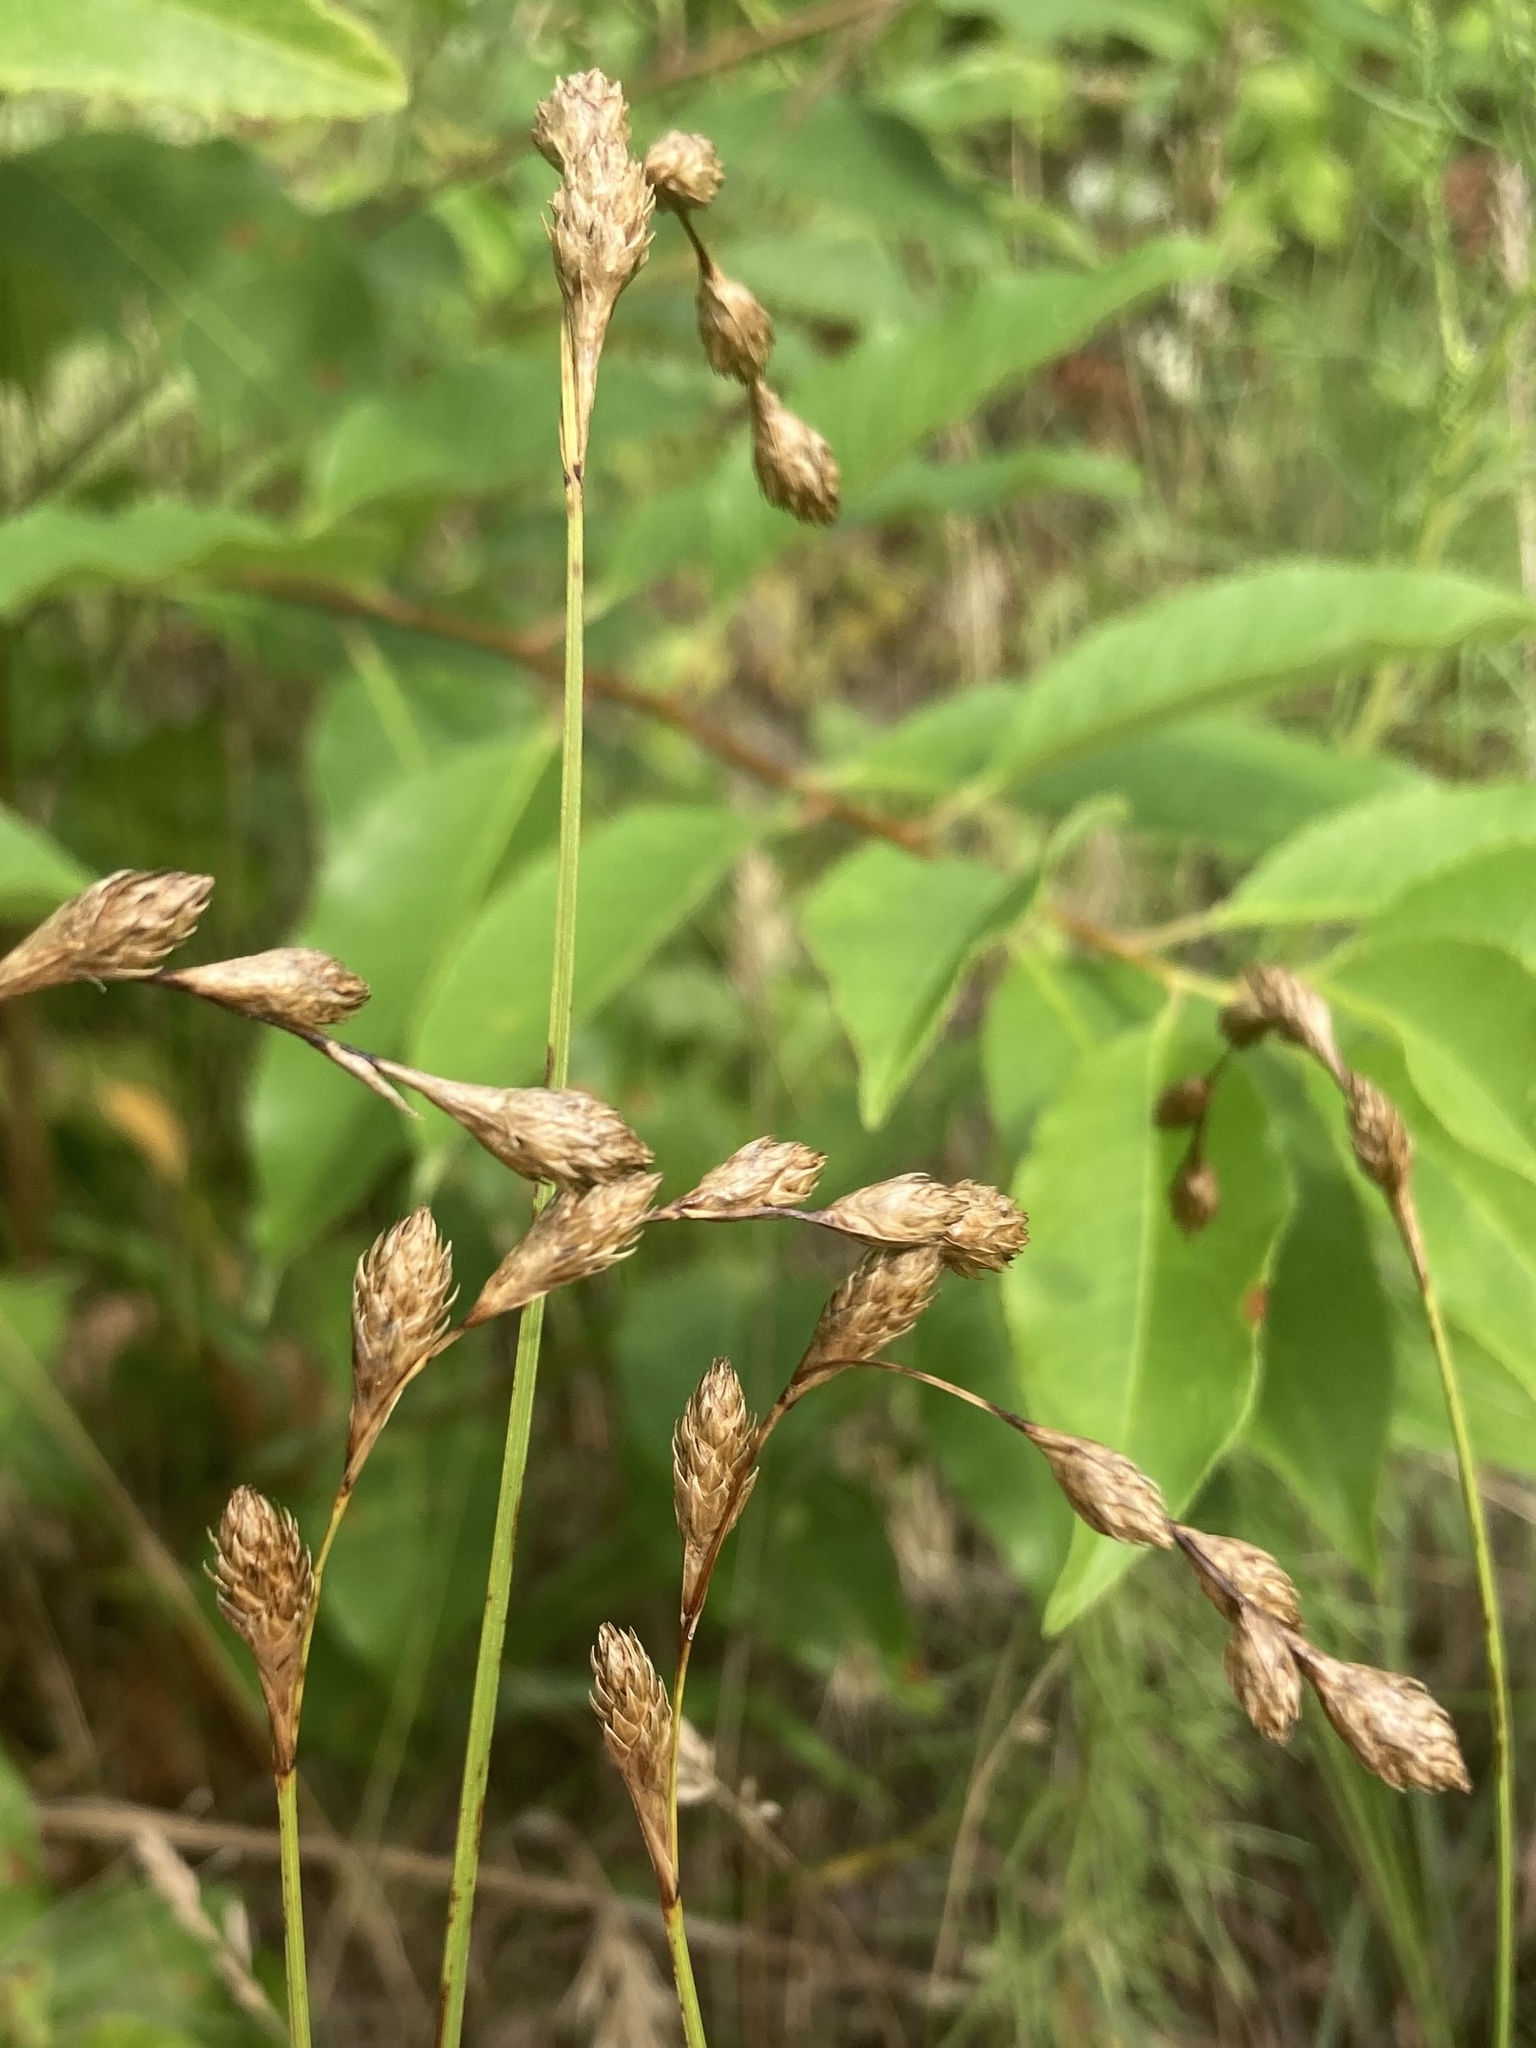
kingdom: Plantae
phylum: Tracheophyta
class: Liliopsida
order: Poales
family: Cyperaceae
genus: Carex
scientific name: Carex silicea
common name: Beach sedge
